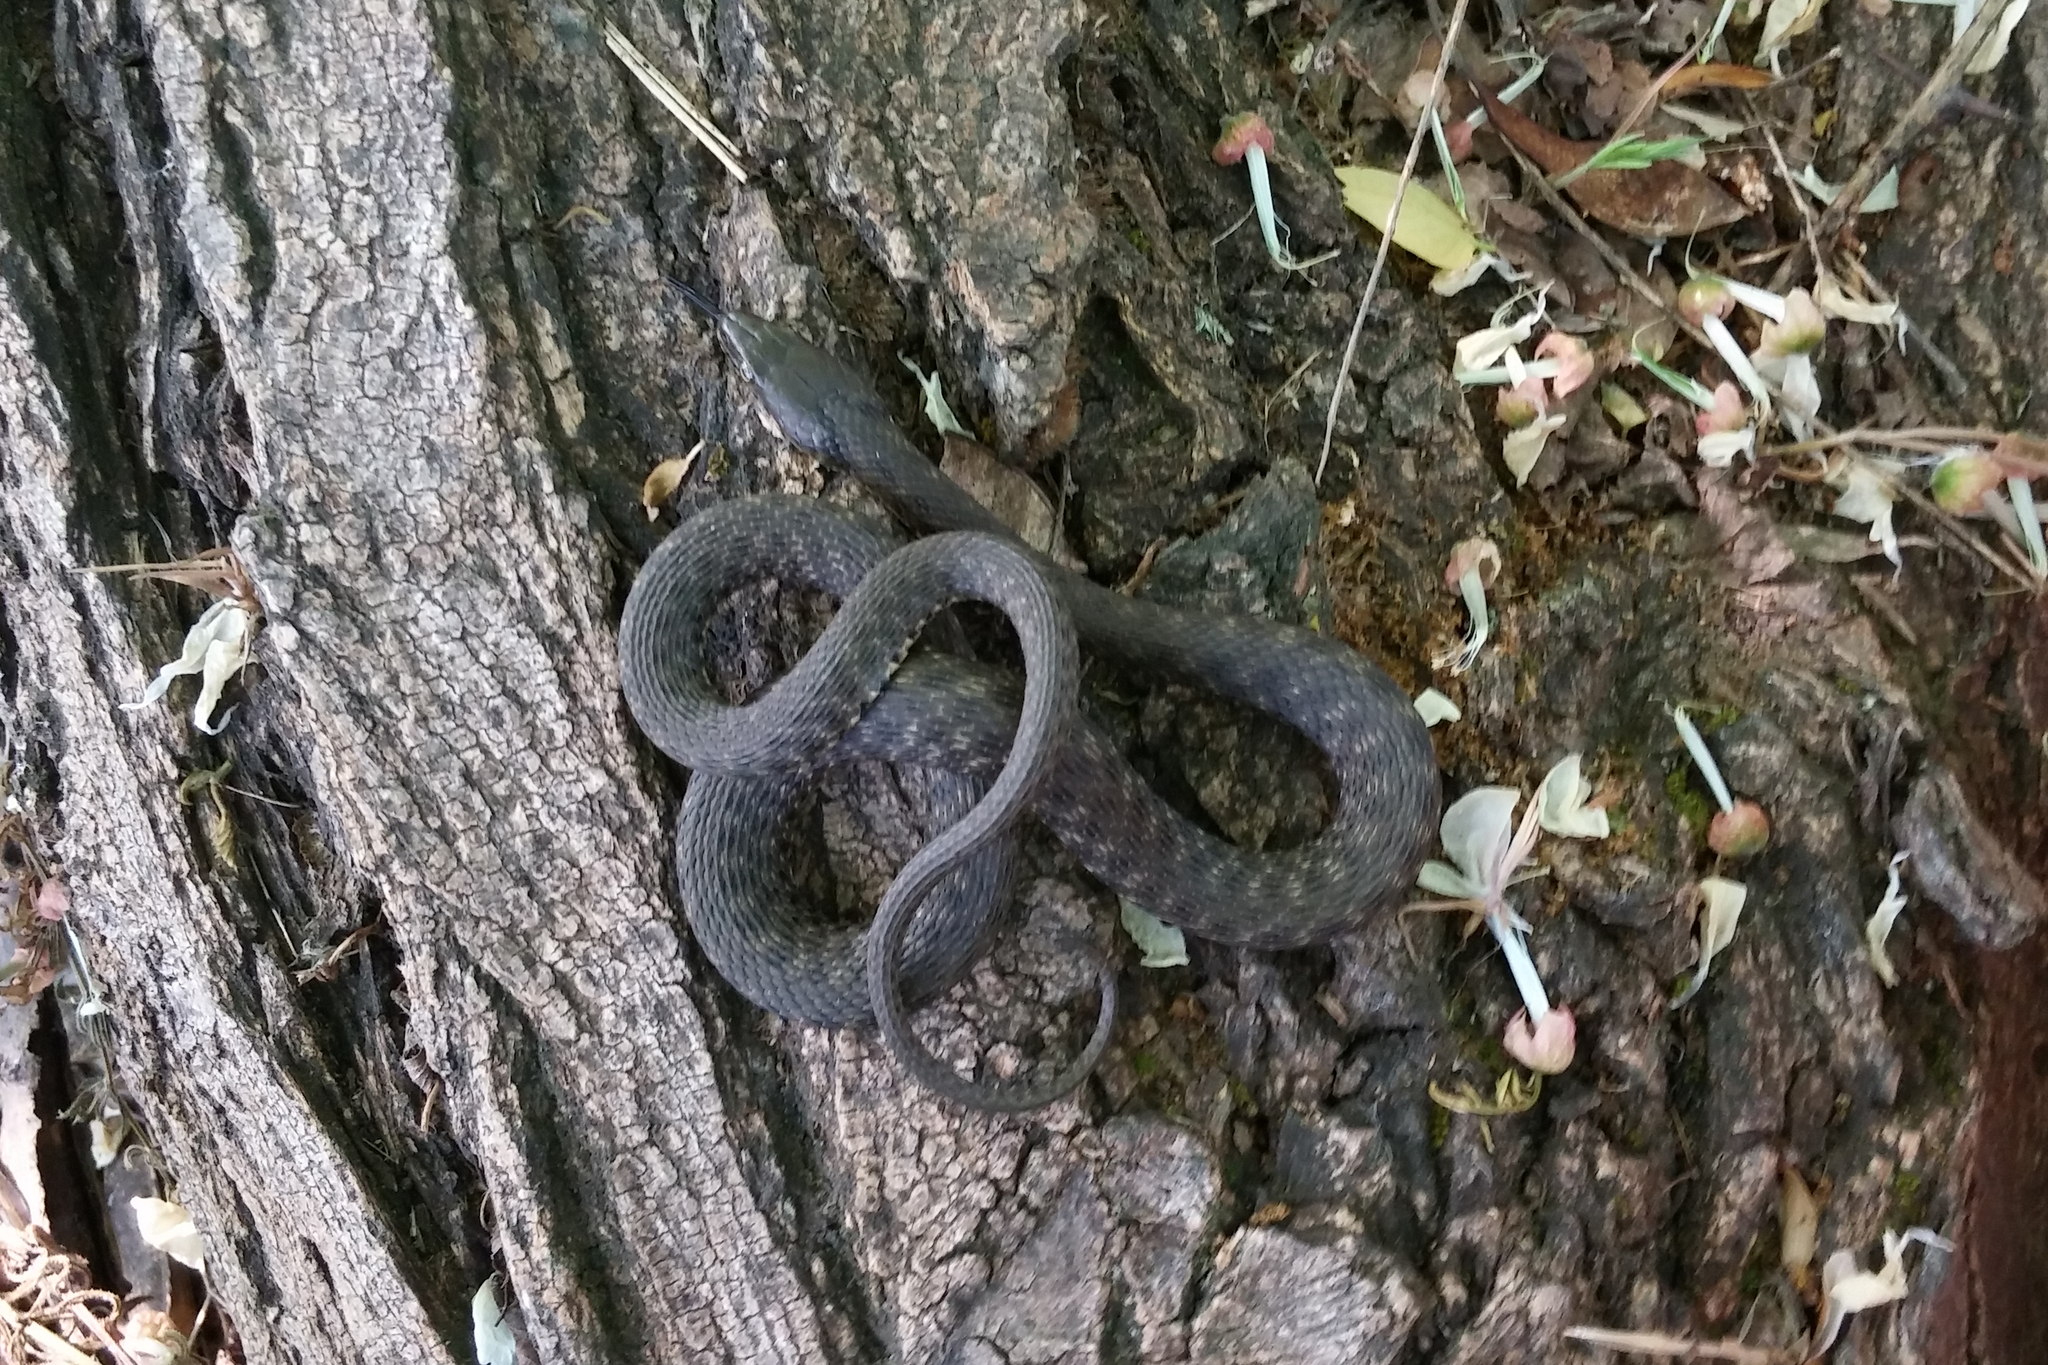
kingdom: Animalia
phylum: Chordata
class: Squamata
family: Colubridae
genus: Natrix
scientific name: Natrix tessellata
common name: Dice snake
